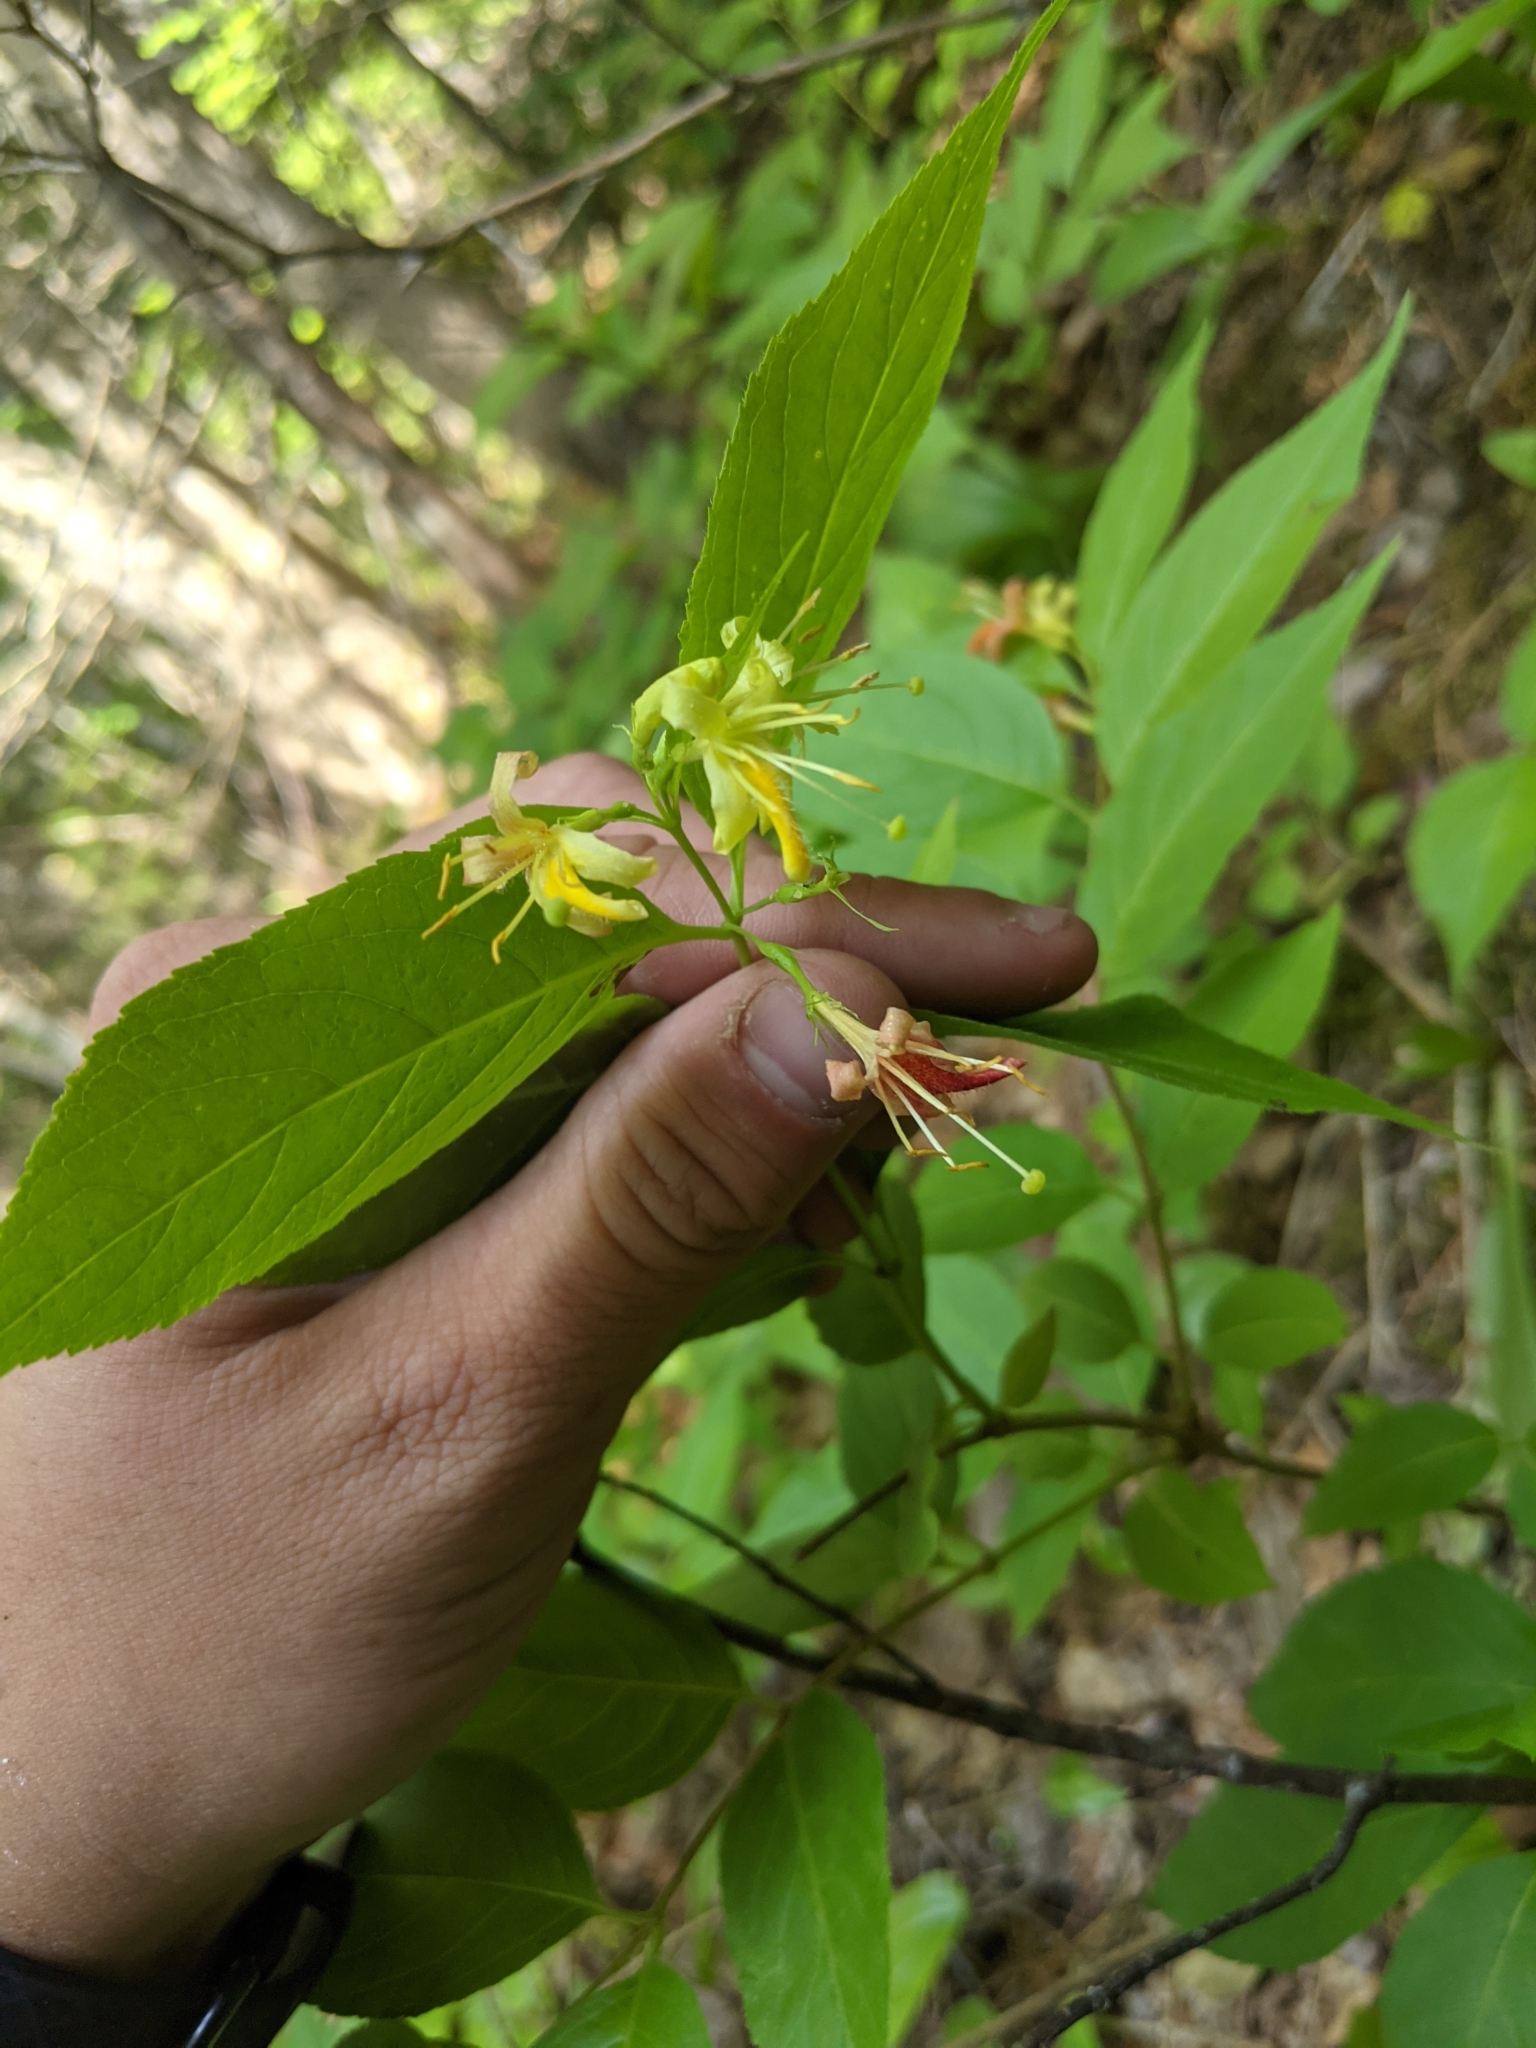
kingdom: Plantae
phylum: Tracheophyta
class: Magnoliopsida
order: Dipsacales
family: Caprifoliaceae
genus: Diervilla
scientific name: Diervilla lonicera
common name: Bush-honeysuckle
